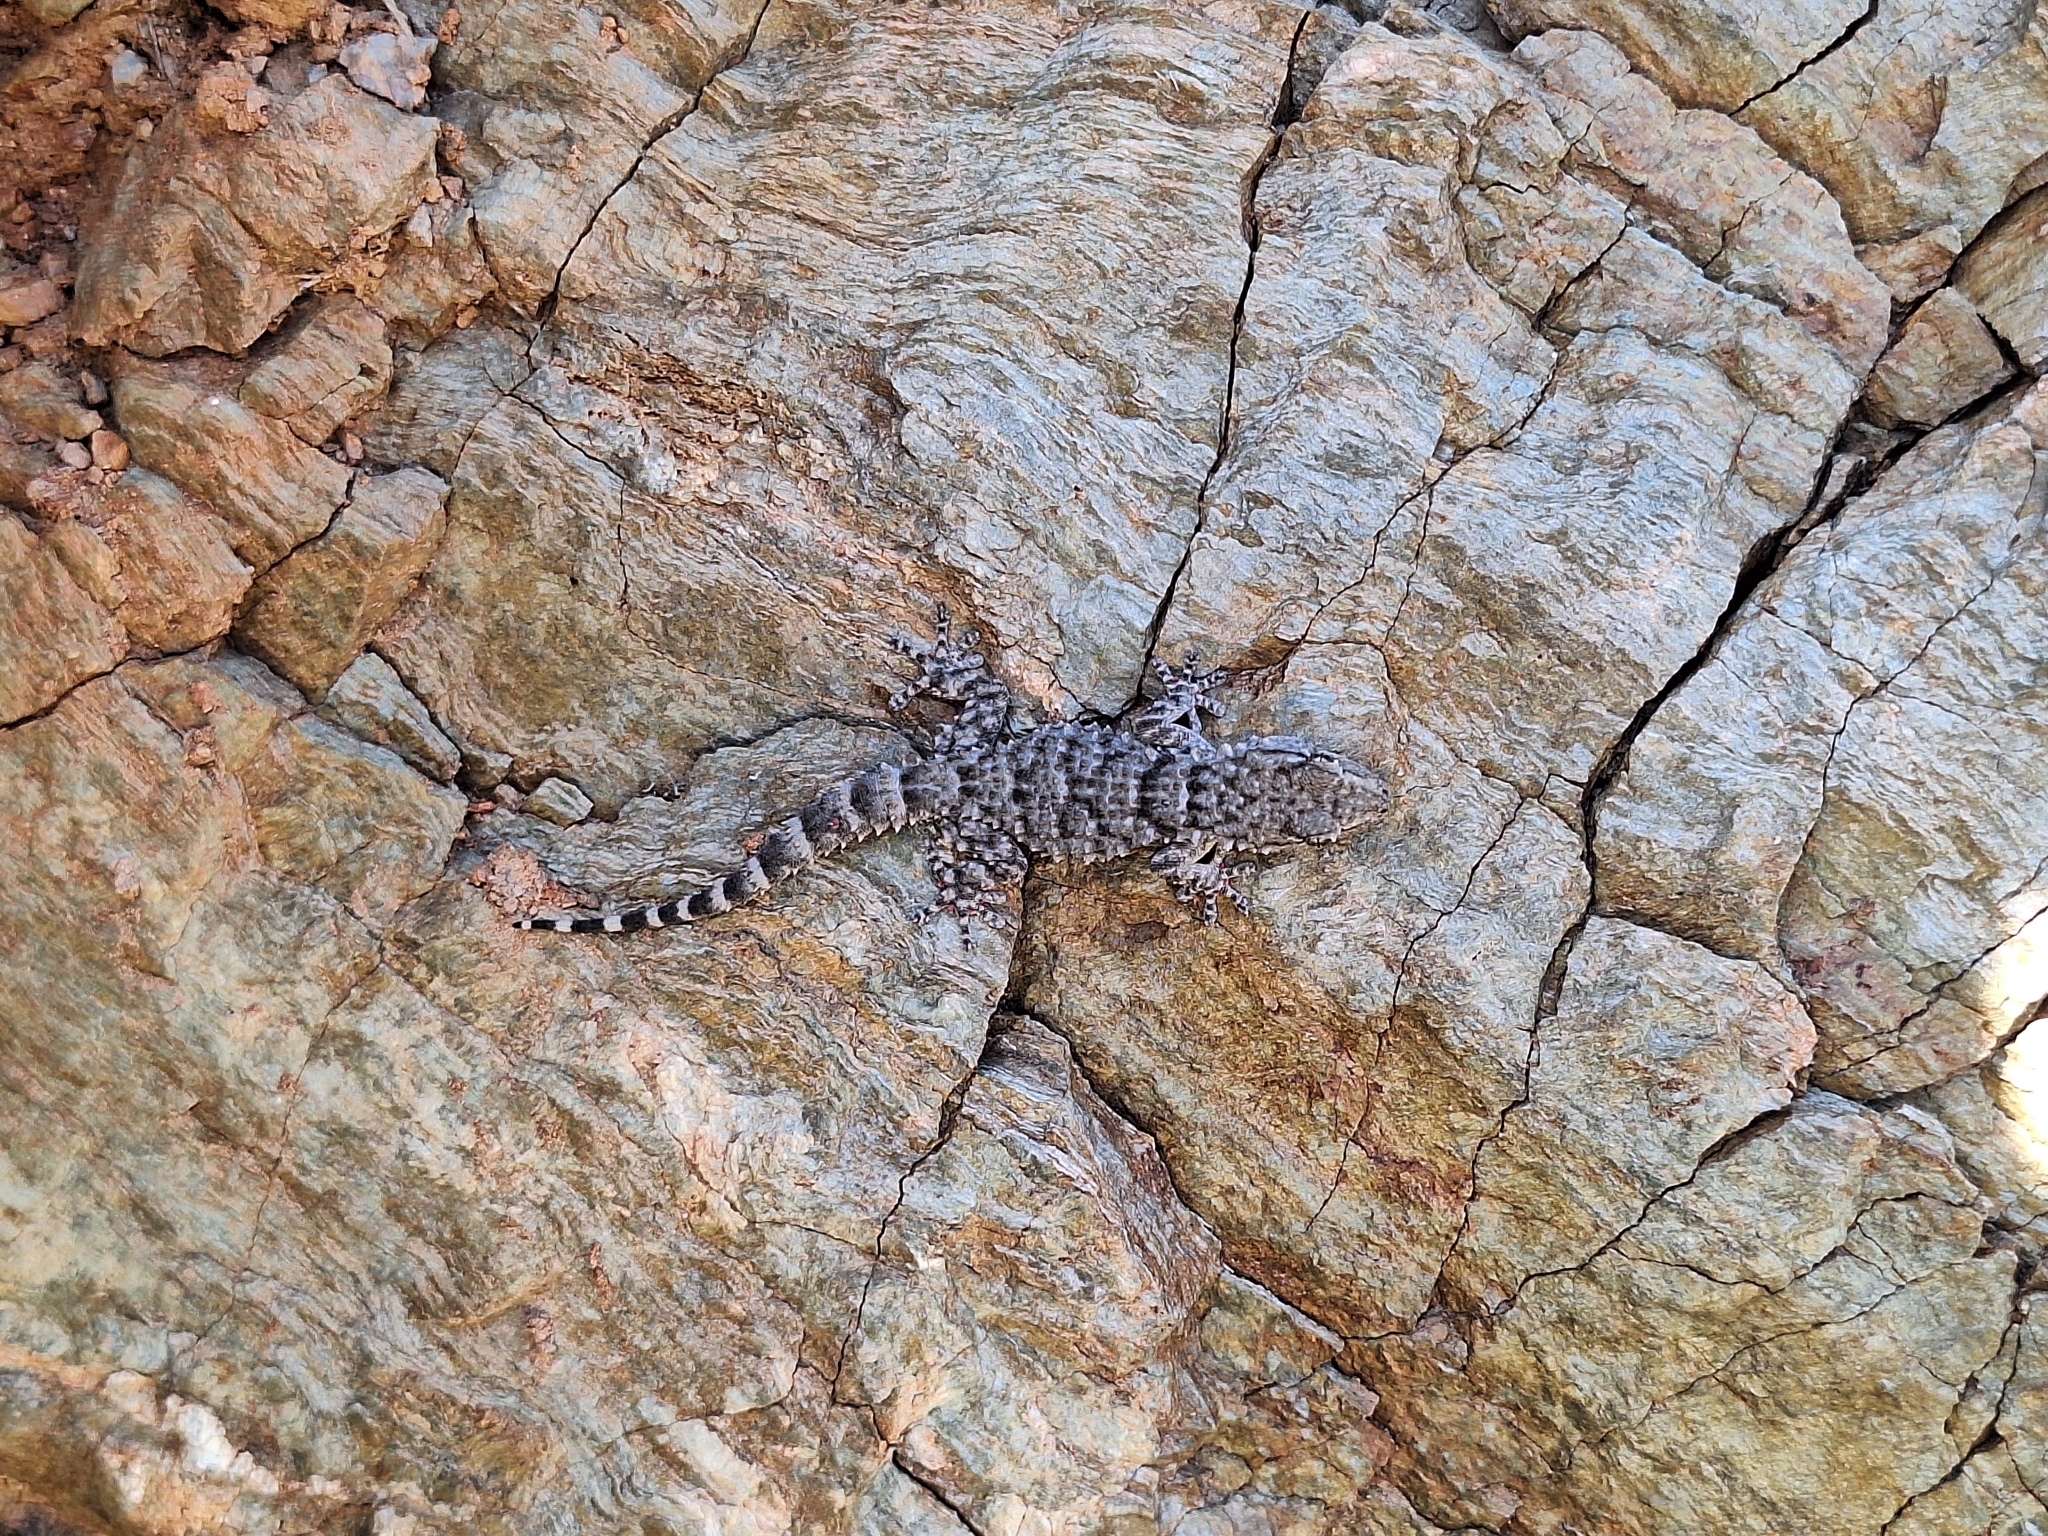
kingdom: Animalia
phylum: Chordata
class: Squamata
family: Phyllodactylidae
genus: Tarentola
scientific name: Tarentola mauritanica
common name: Moorish gecko
